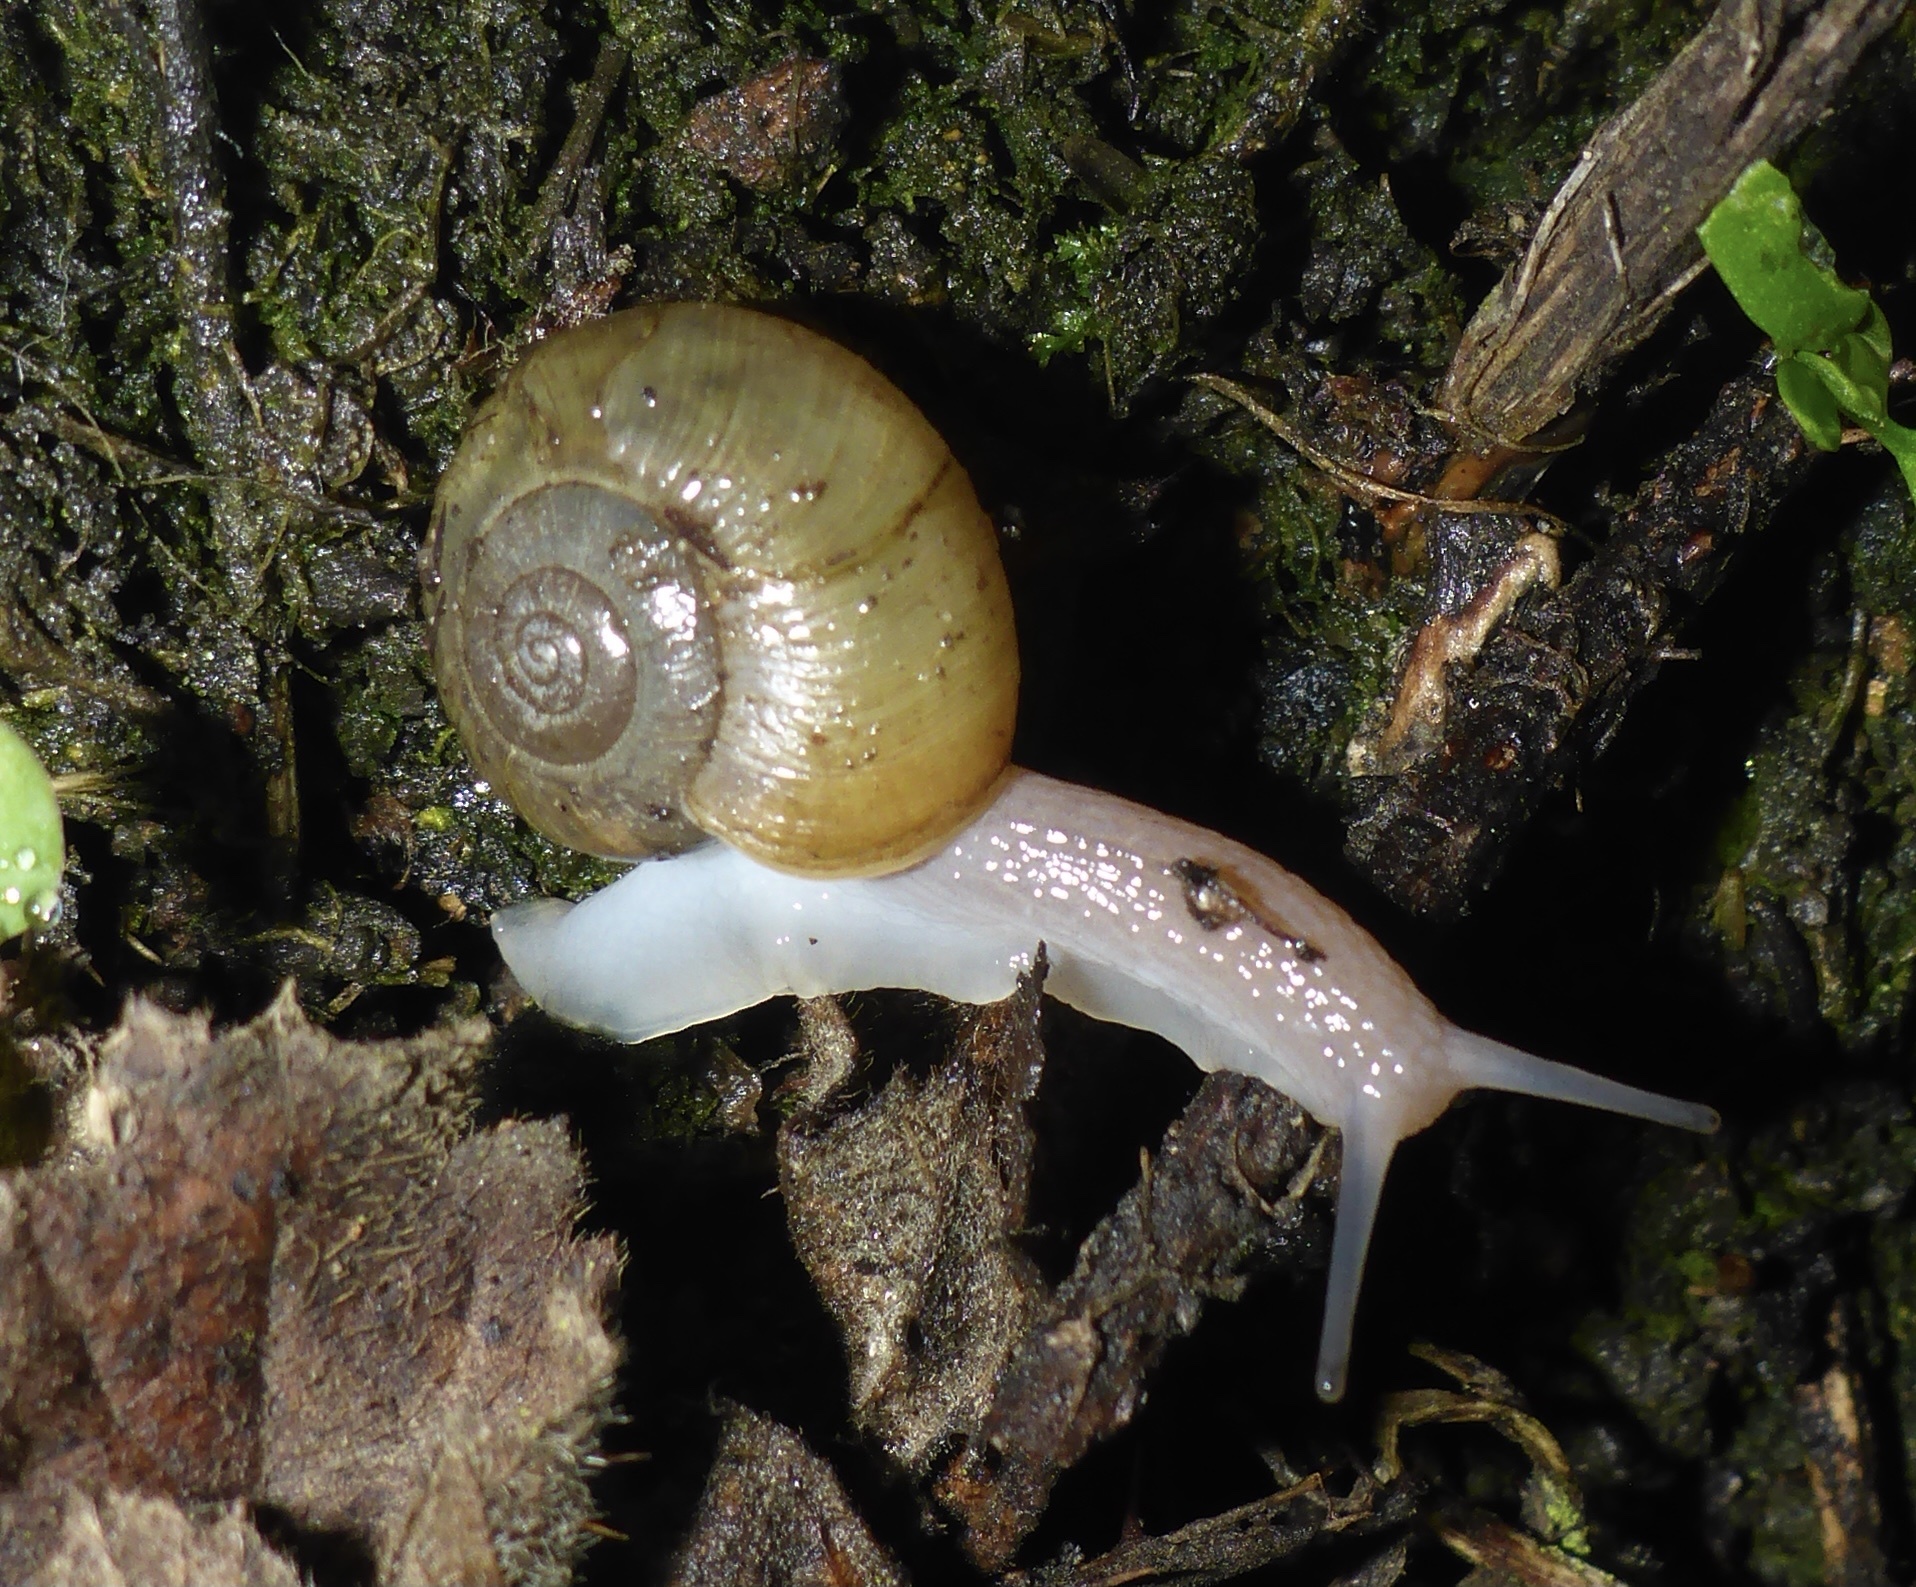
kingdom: Animalia
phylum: Mollusca
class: Gastropoda
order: Stylommatophora
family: Haplotrematidae
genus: Haplotrema
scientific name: Haplotrema minimum
